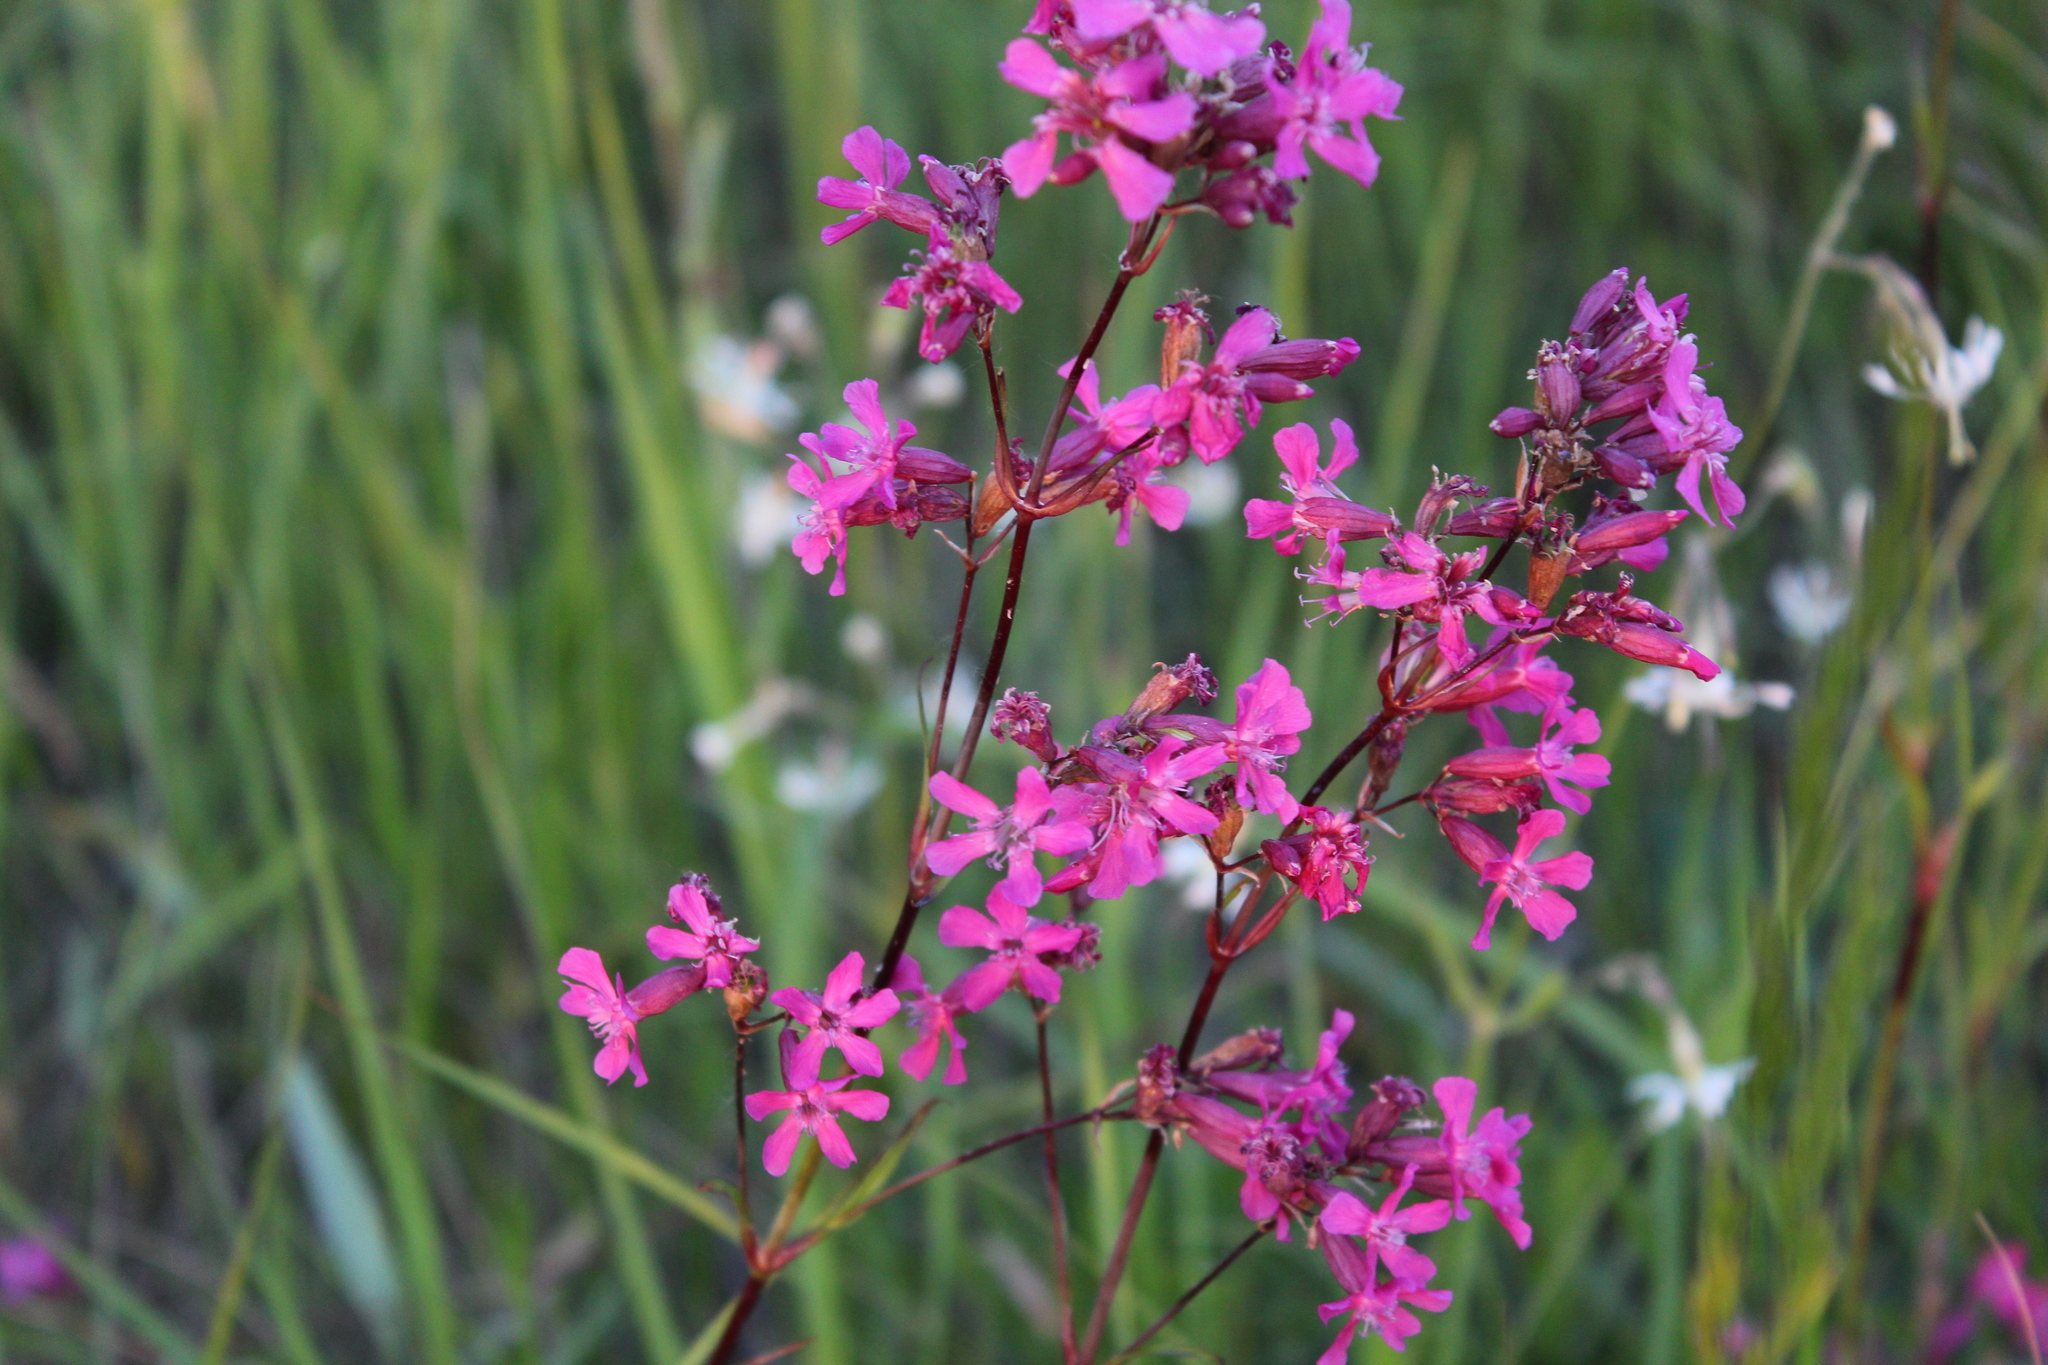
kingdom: Plantae
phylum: Tracheophyta
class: Magnoliopsida
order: Caryophyllales
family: Caryophyllaceae
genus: Viscaria
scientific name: Viscaria vulgaris
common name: Clammy campion
